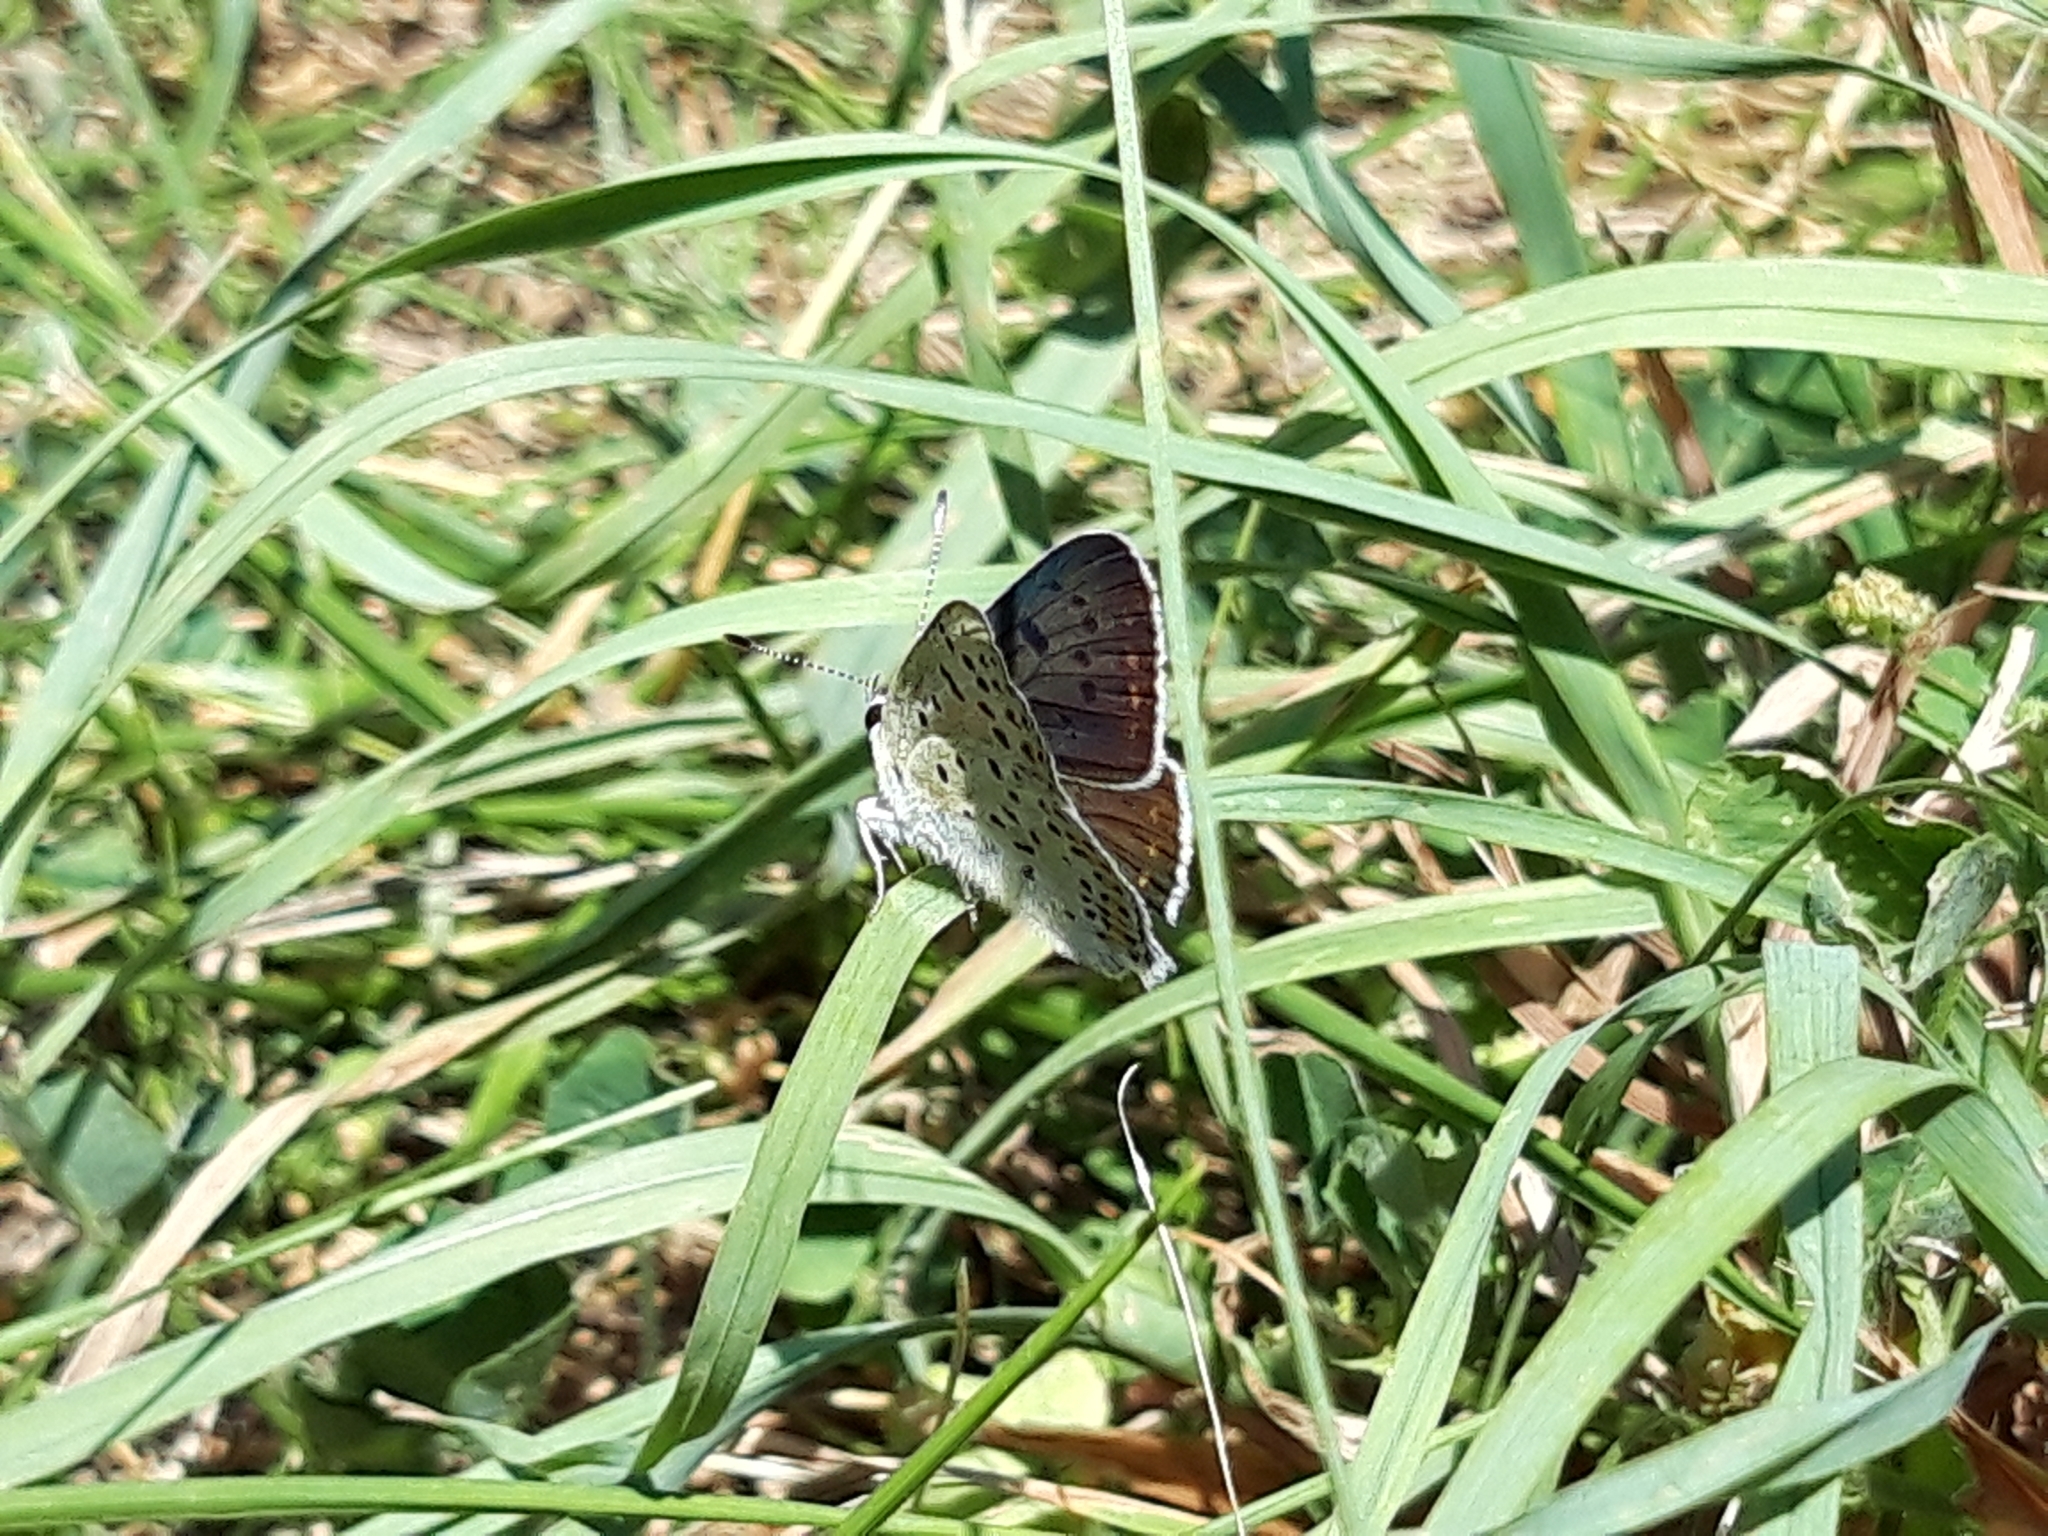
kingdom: Animalia
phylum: Arthropoda
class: Insecta
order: Lepidoptera
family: Lycaenidae
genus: Loweia
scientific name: Loweia tityrus
